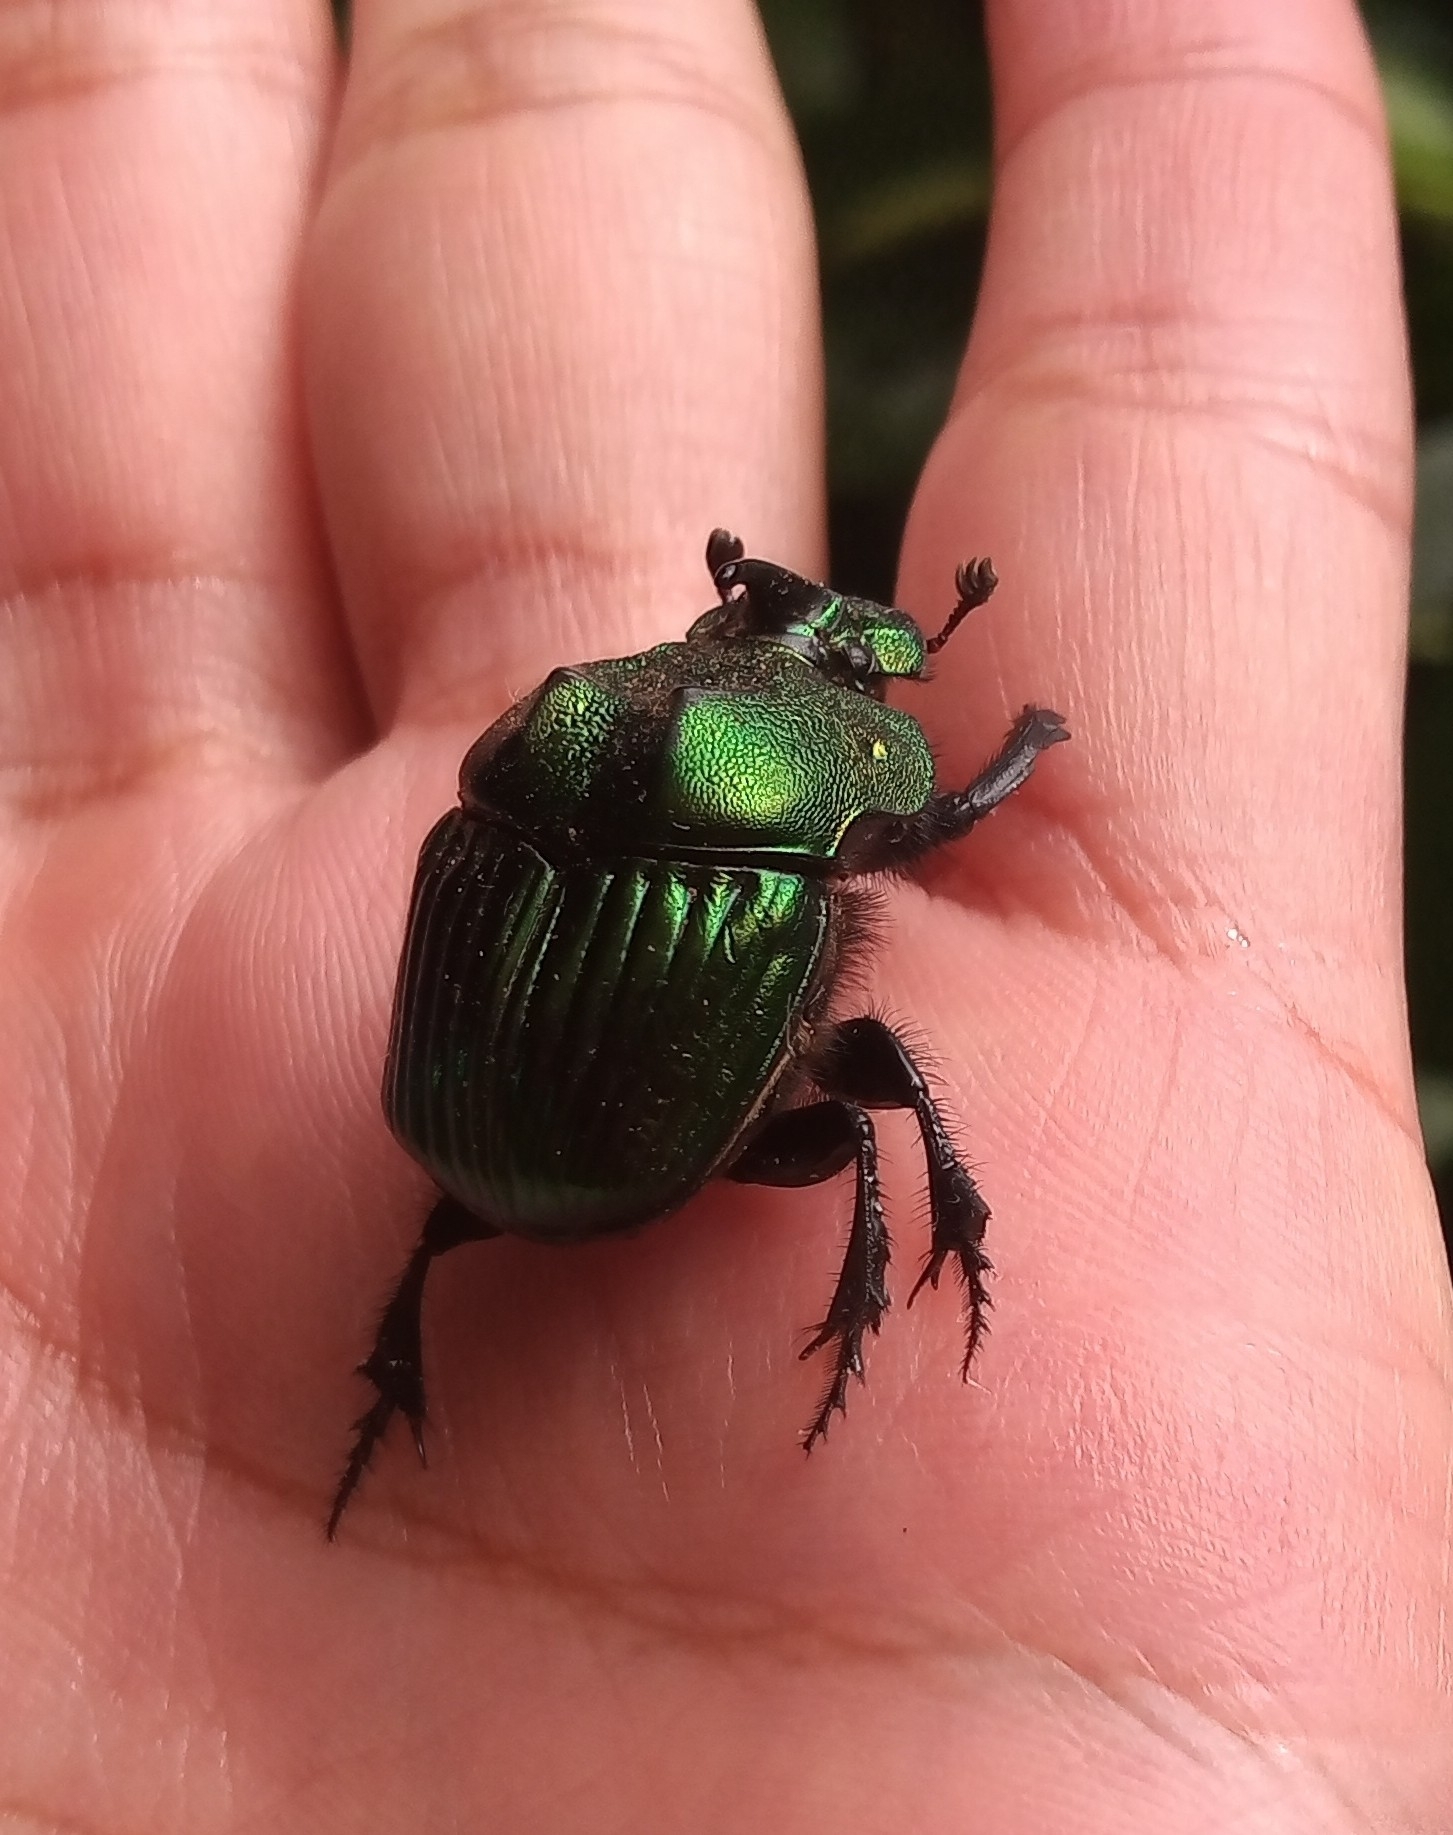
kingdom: Animalia
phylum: Arthropoda
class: Insecta
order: Coleoptera
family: Scarabaeidae
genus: Phanaeus
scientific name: Phanaeus amithaon
